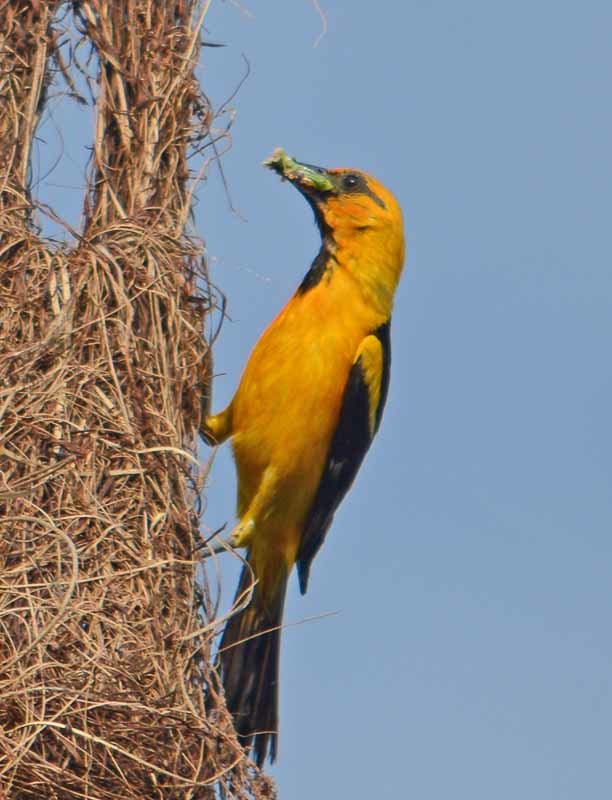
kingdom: Animalia
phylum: Chordata
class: Aves
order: Passeriformes
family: Icteridae
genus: Icterus
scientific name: Icterus gularis
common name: Altamira oriole
